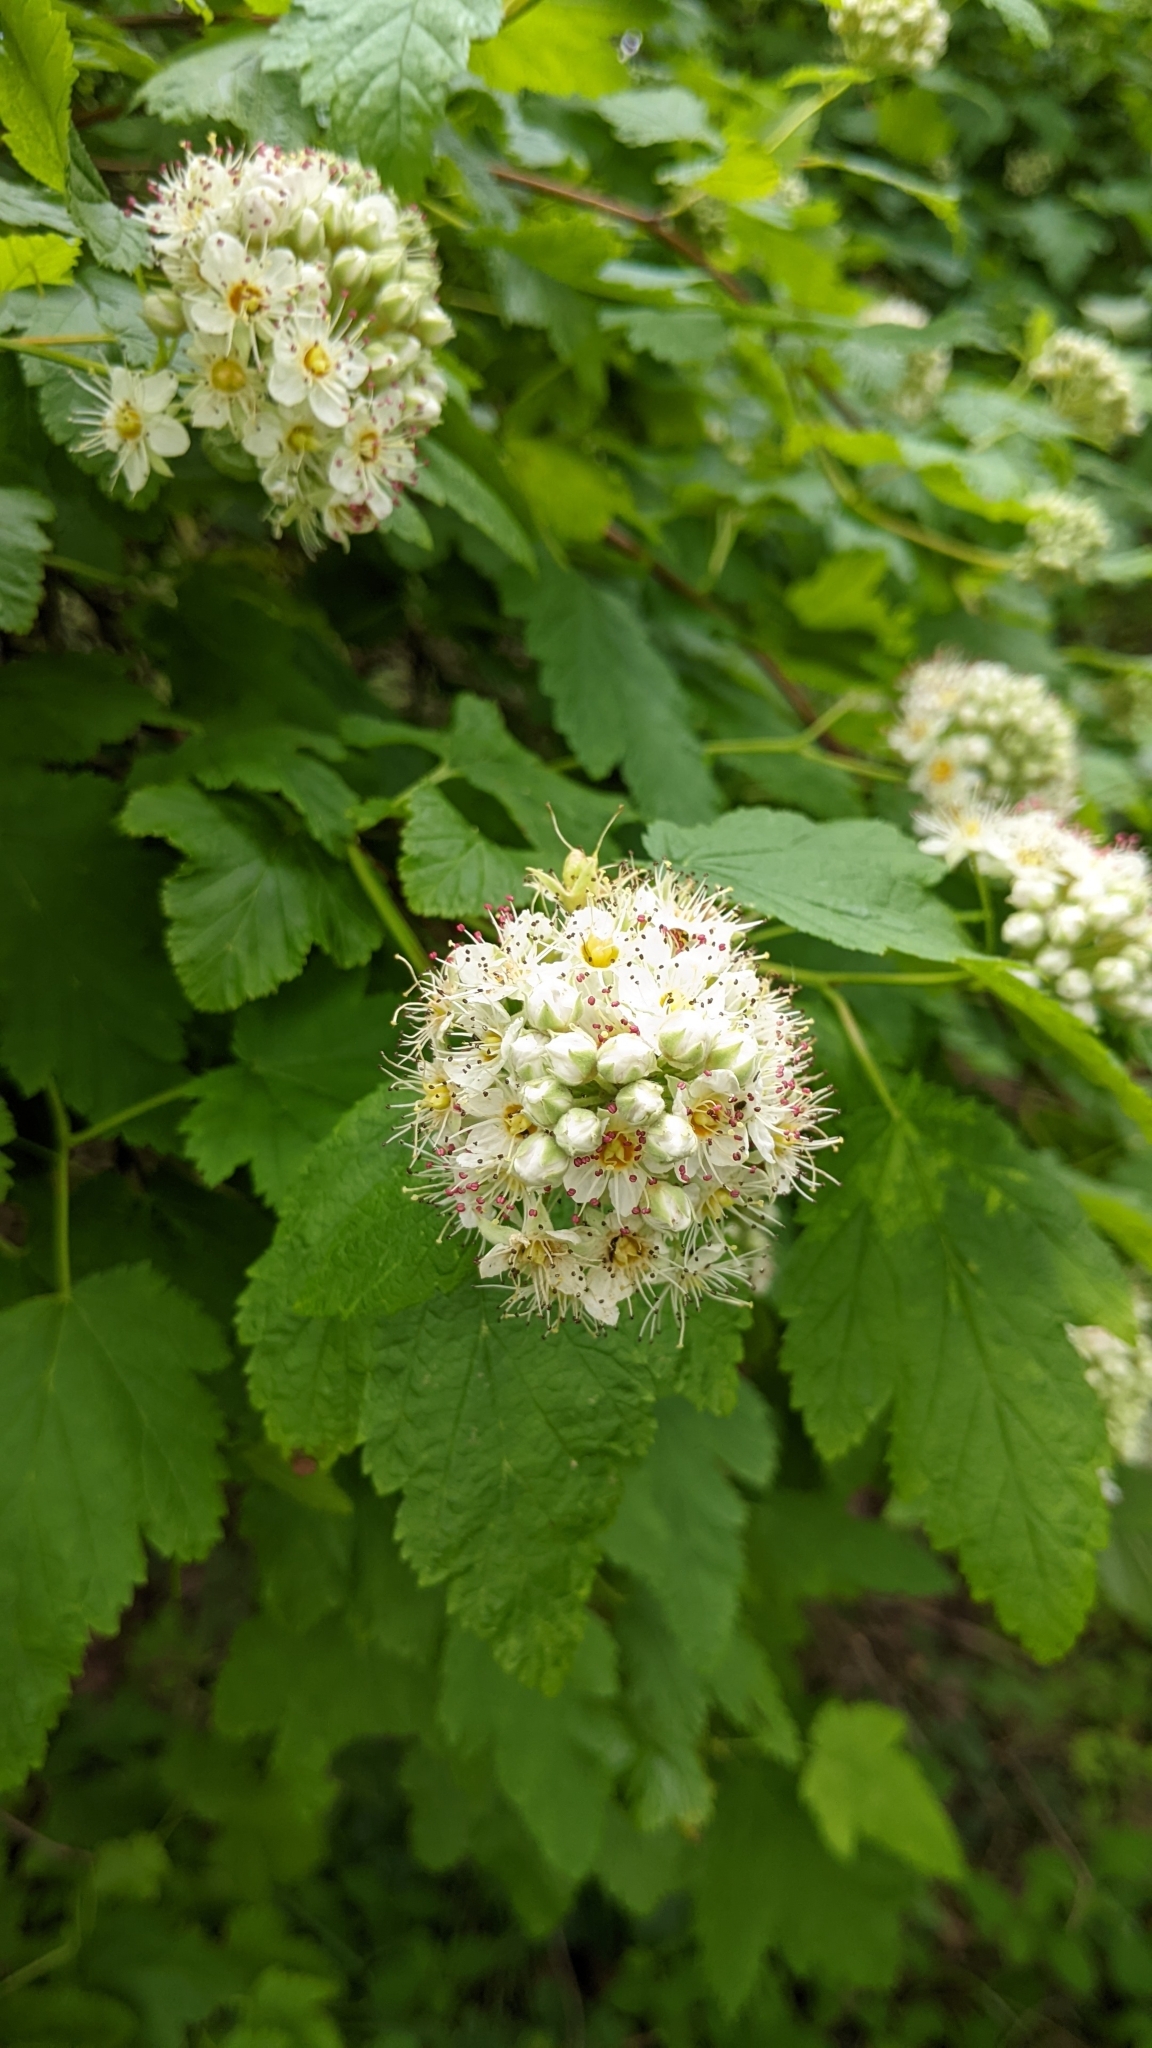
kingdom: Plantae
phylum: Tracheophyta
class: Magnoliopsida
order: Rosales
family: Rosaceae
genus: Physocarpus
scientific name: Physocarpus capitatus
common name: Pacific ninebark
